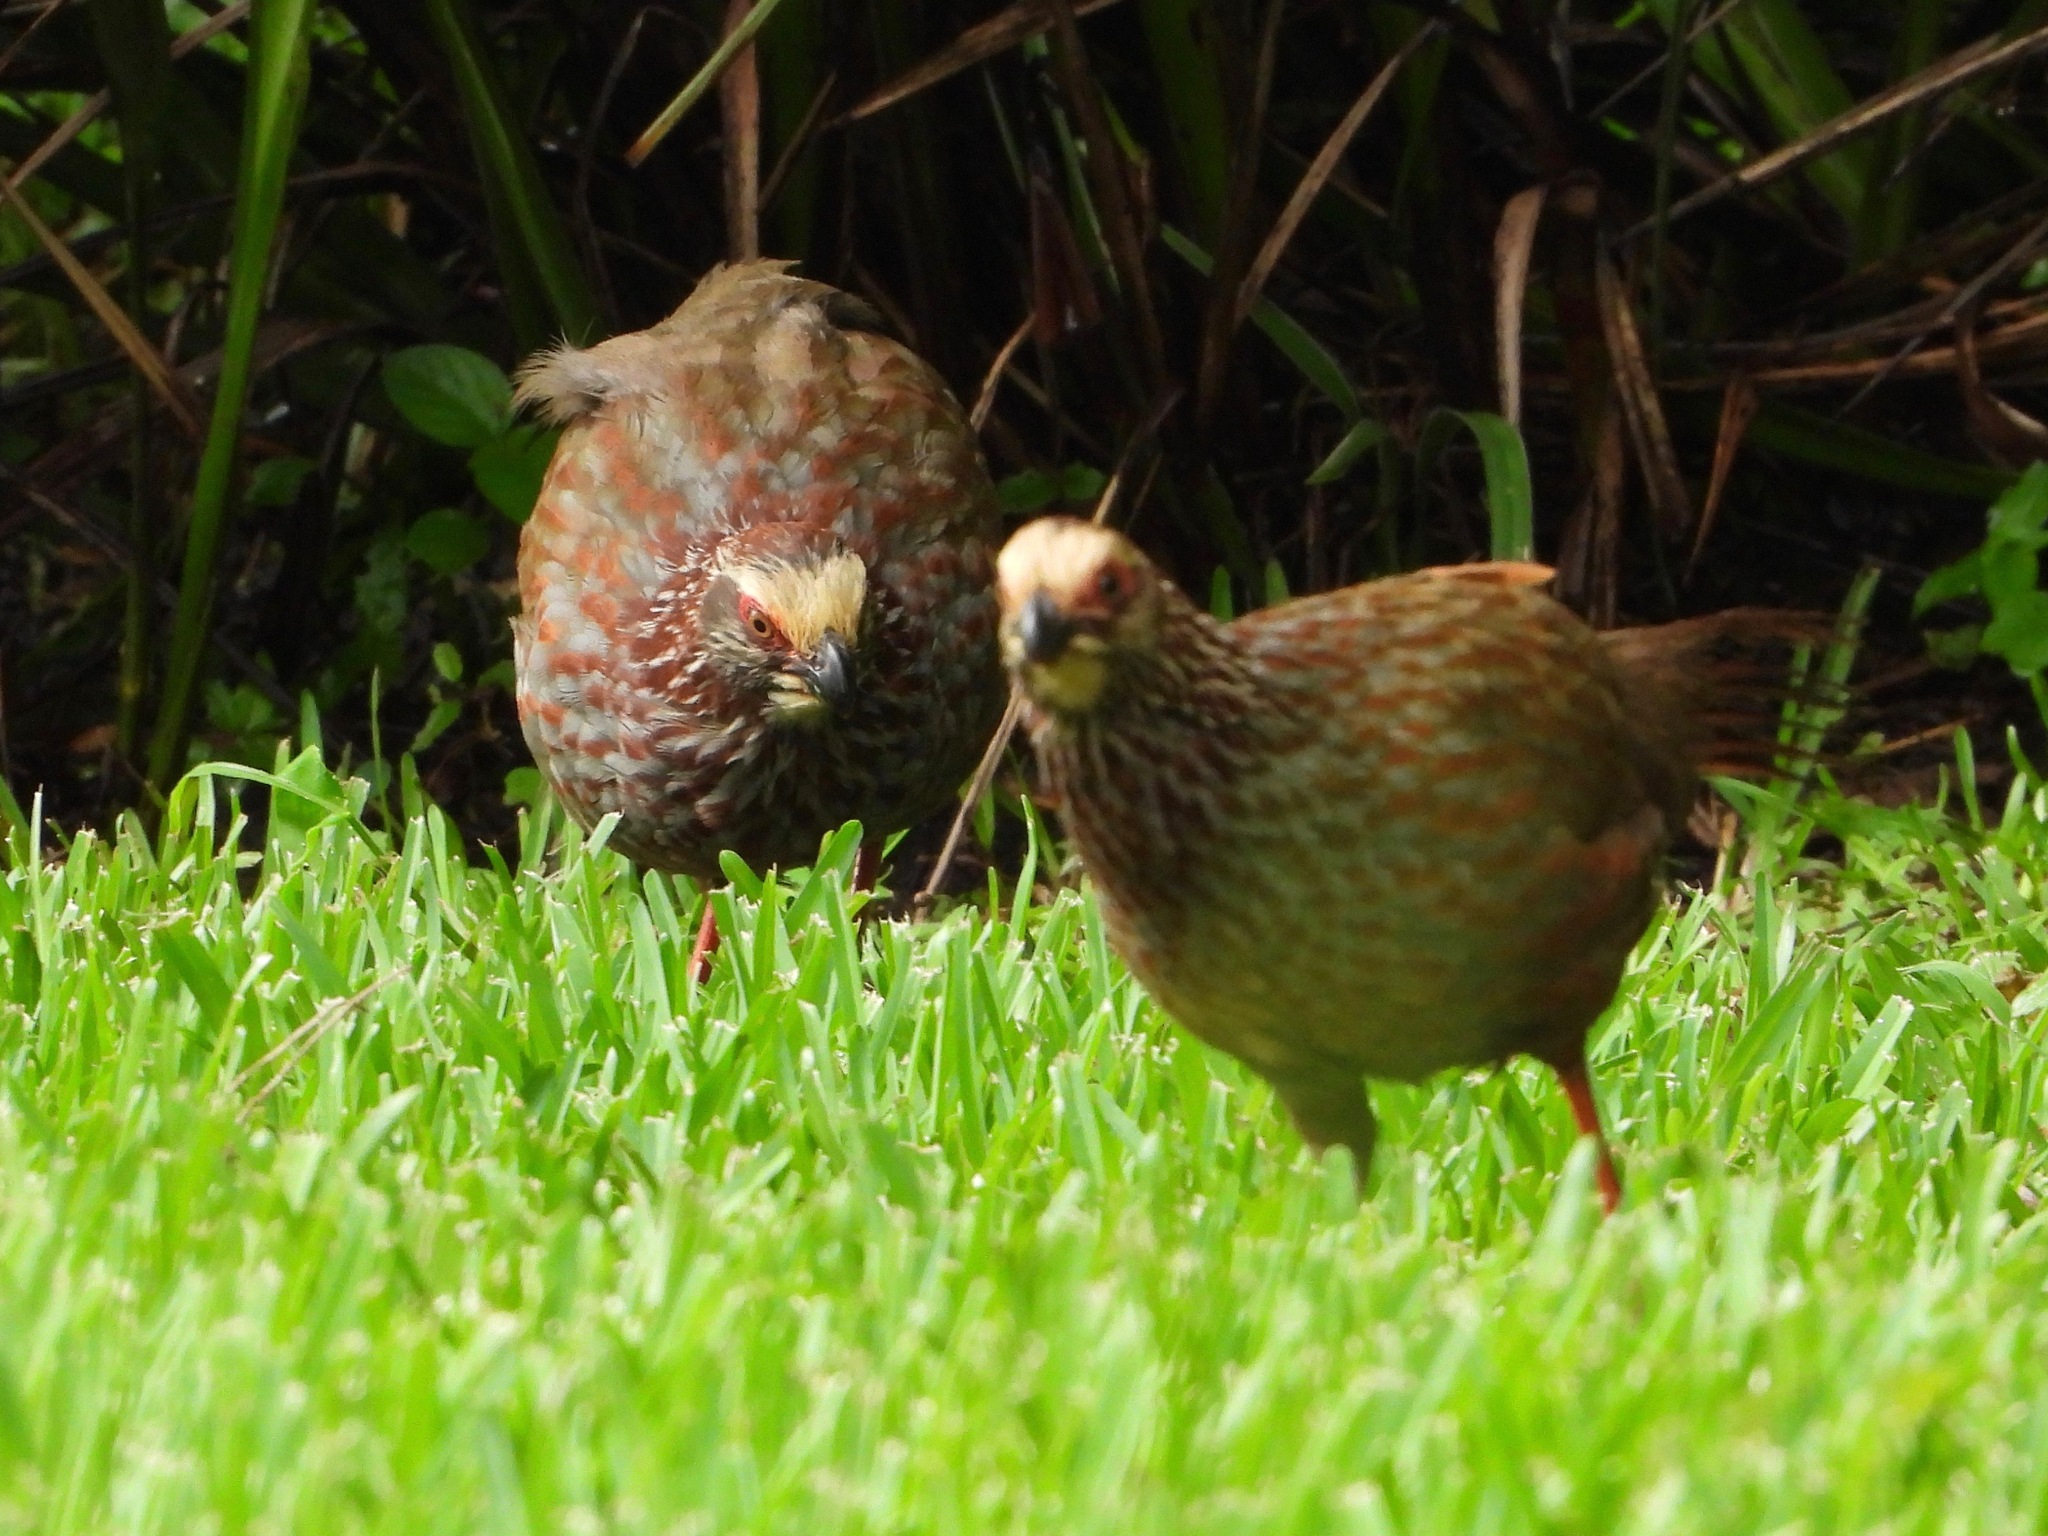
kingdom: Animalia
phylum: Chordata
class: Aves
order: Galliformes
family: Odontophoridae
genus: Dendrortyx
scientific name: Dendrortyx leucophrys
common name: Buffy-crowned wood-partridge
